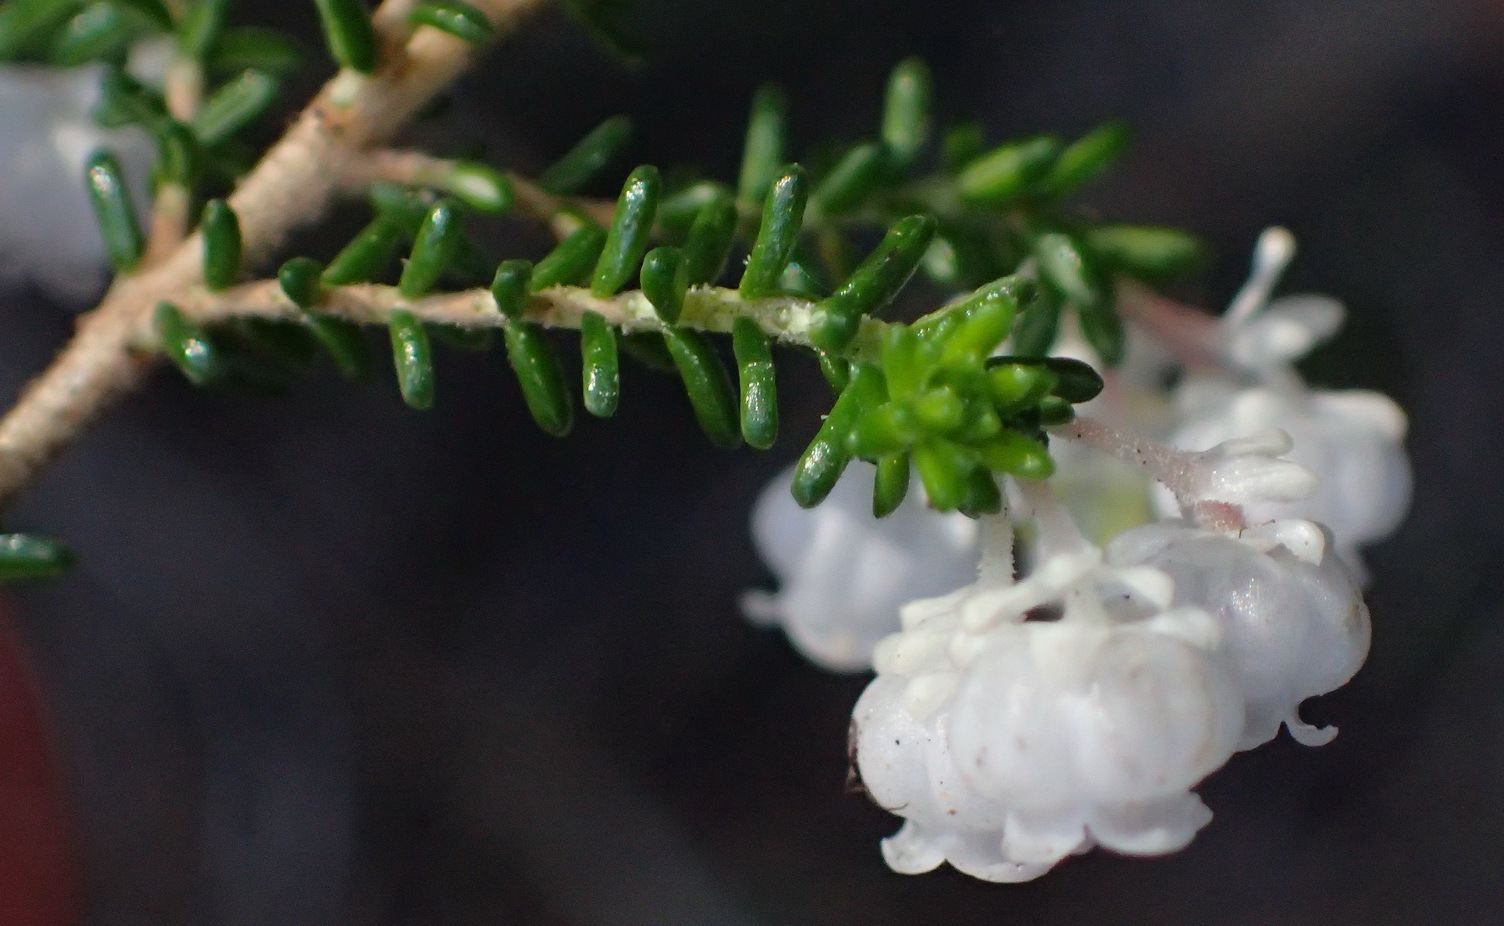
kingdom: Plantae
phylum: Tracheophyta
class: Magnoliopsida
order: Ericales
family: Ericaceae
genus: Erica
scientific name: Erica formosa
